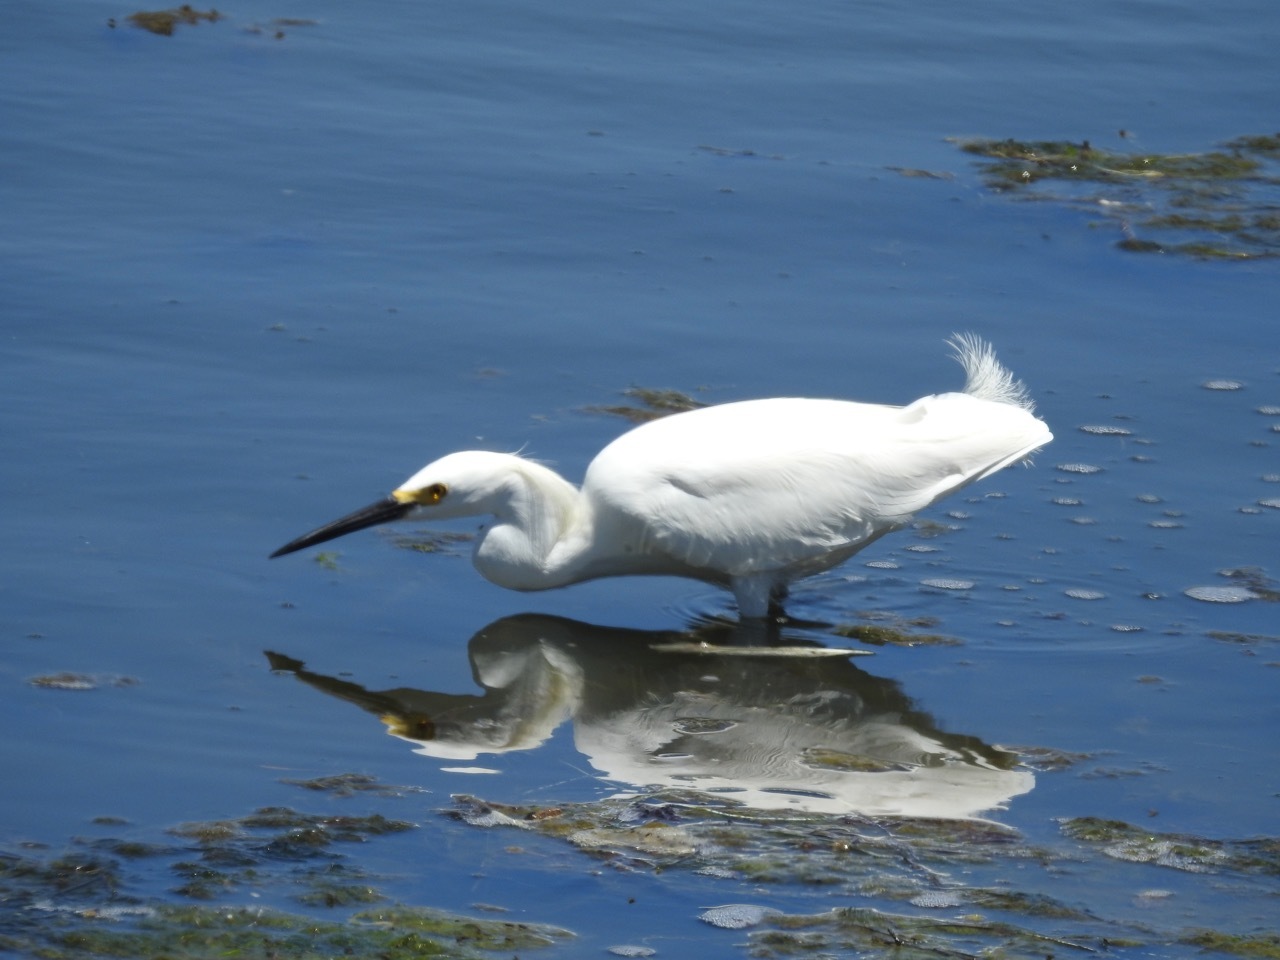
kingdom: Animalia
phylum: Chordata
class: Aves
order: Pelecaniformes
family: Ardeidae
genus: Egretta
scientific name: Egretta thula
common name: Snowy egret
